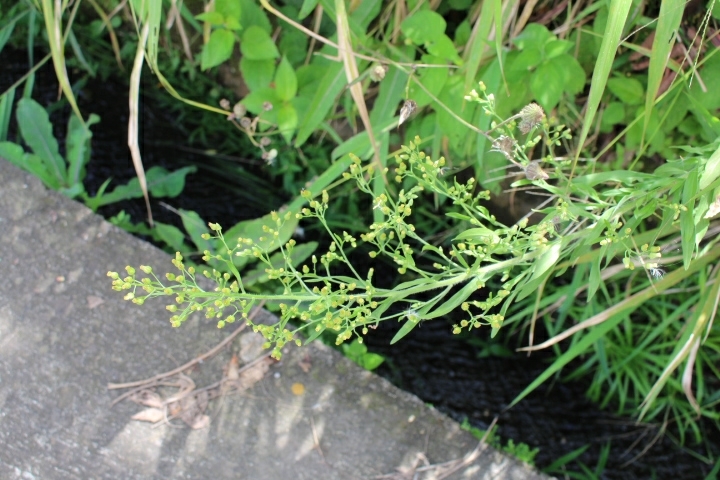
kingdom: Plantae
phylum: Tracheophyta
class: Magnoliopsida
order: Asterales
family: Asteraceae
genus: Erigeron
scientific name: Erigeron canadensis
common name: Canadian fleabane
